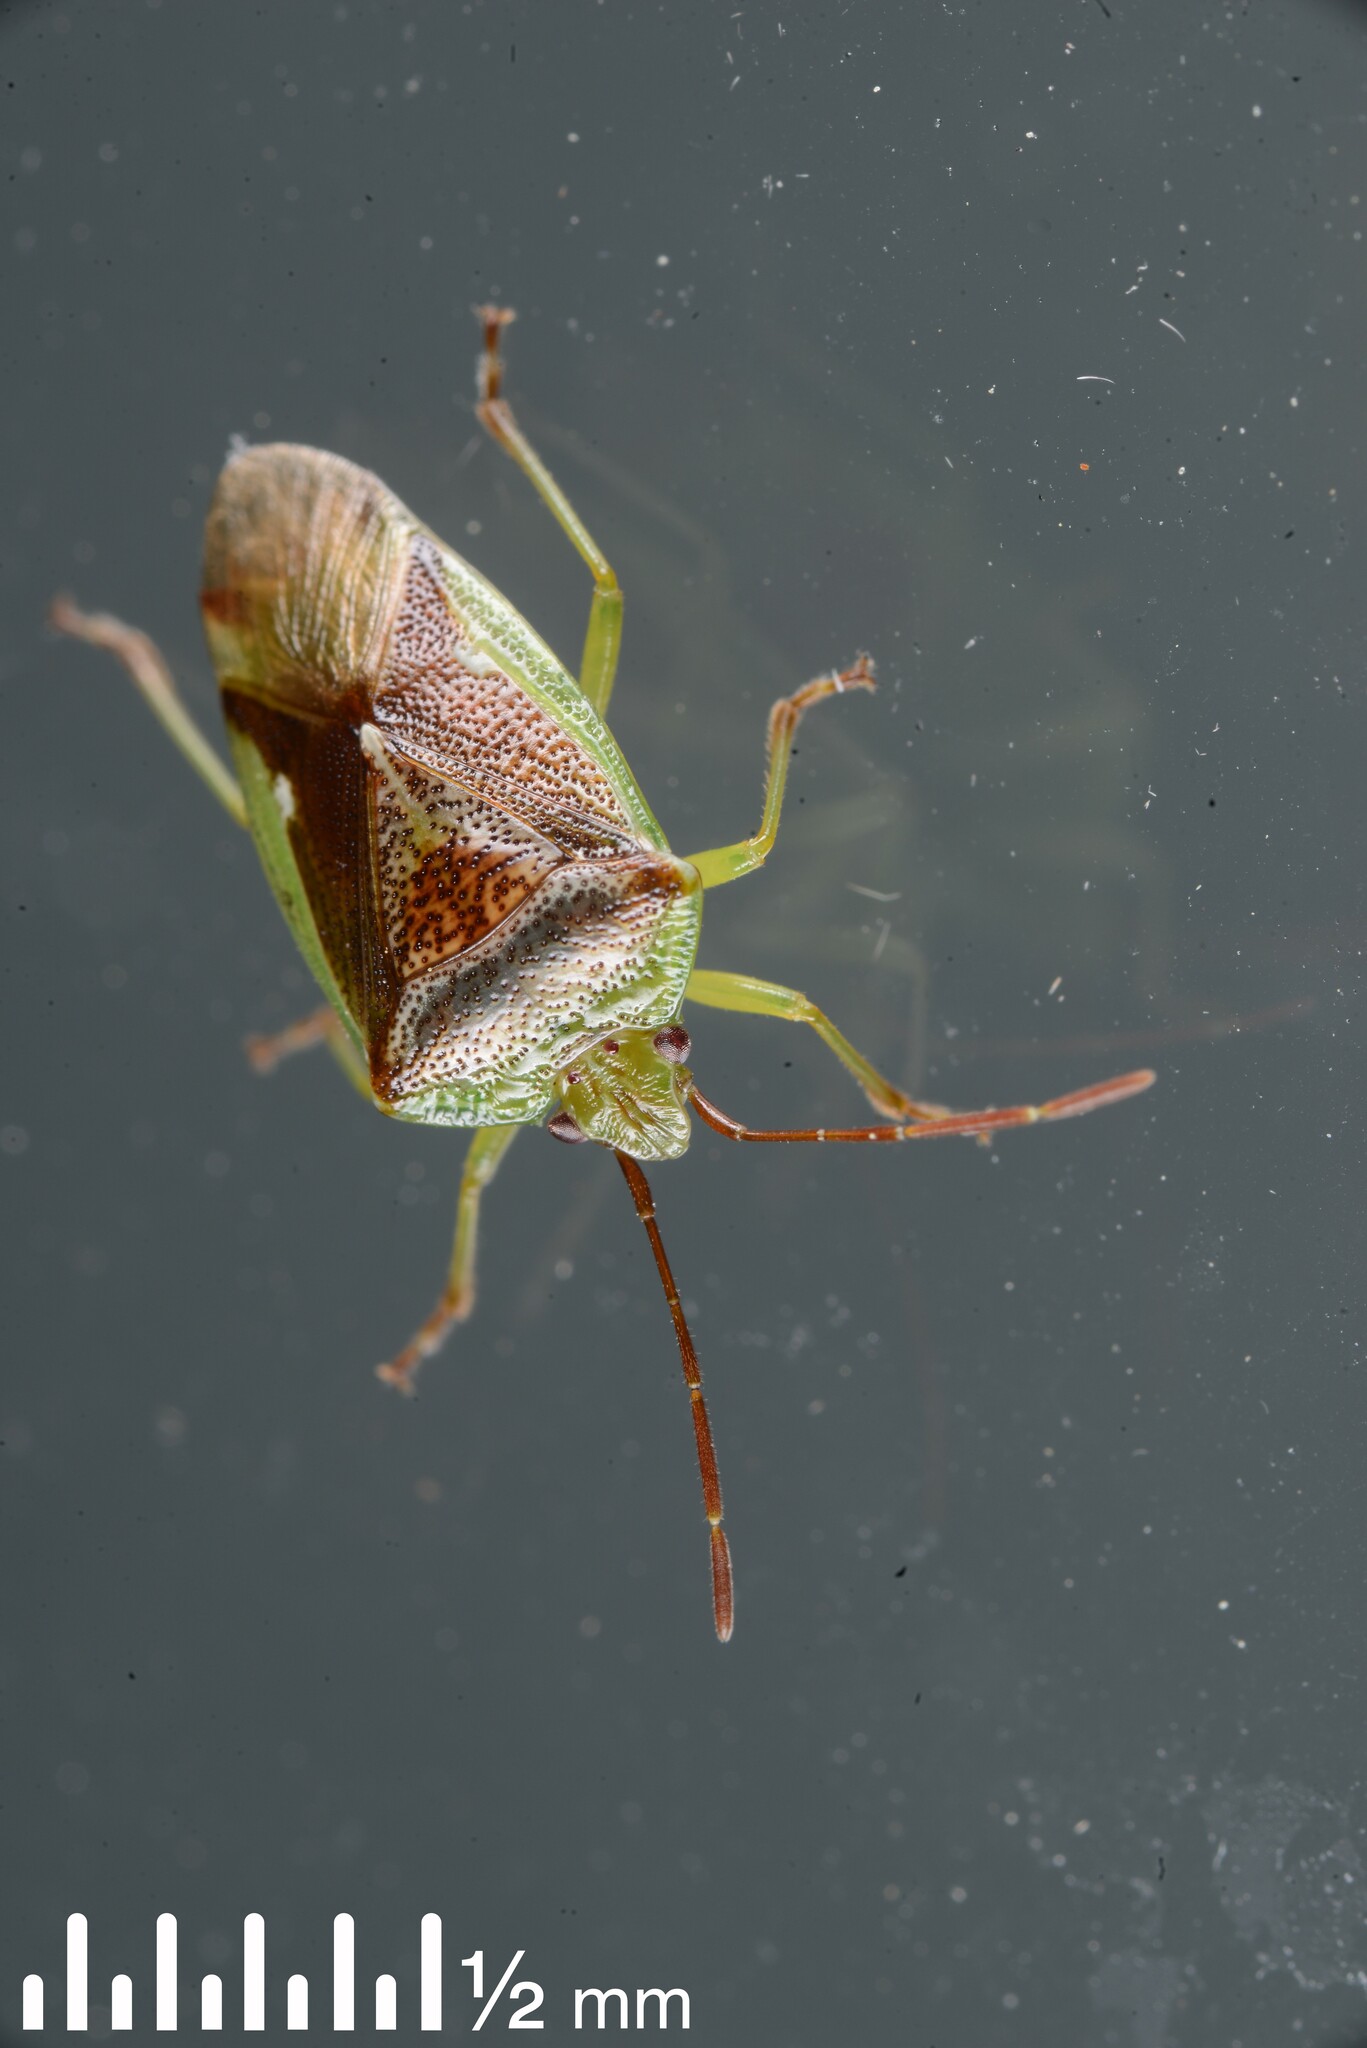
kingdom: Animalia
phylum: Arthropoda
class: Insecta
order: Hemiptera
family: Acanthosomatidae
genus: Oncacontias
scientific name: Oncacontias vittatus
